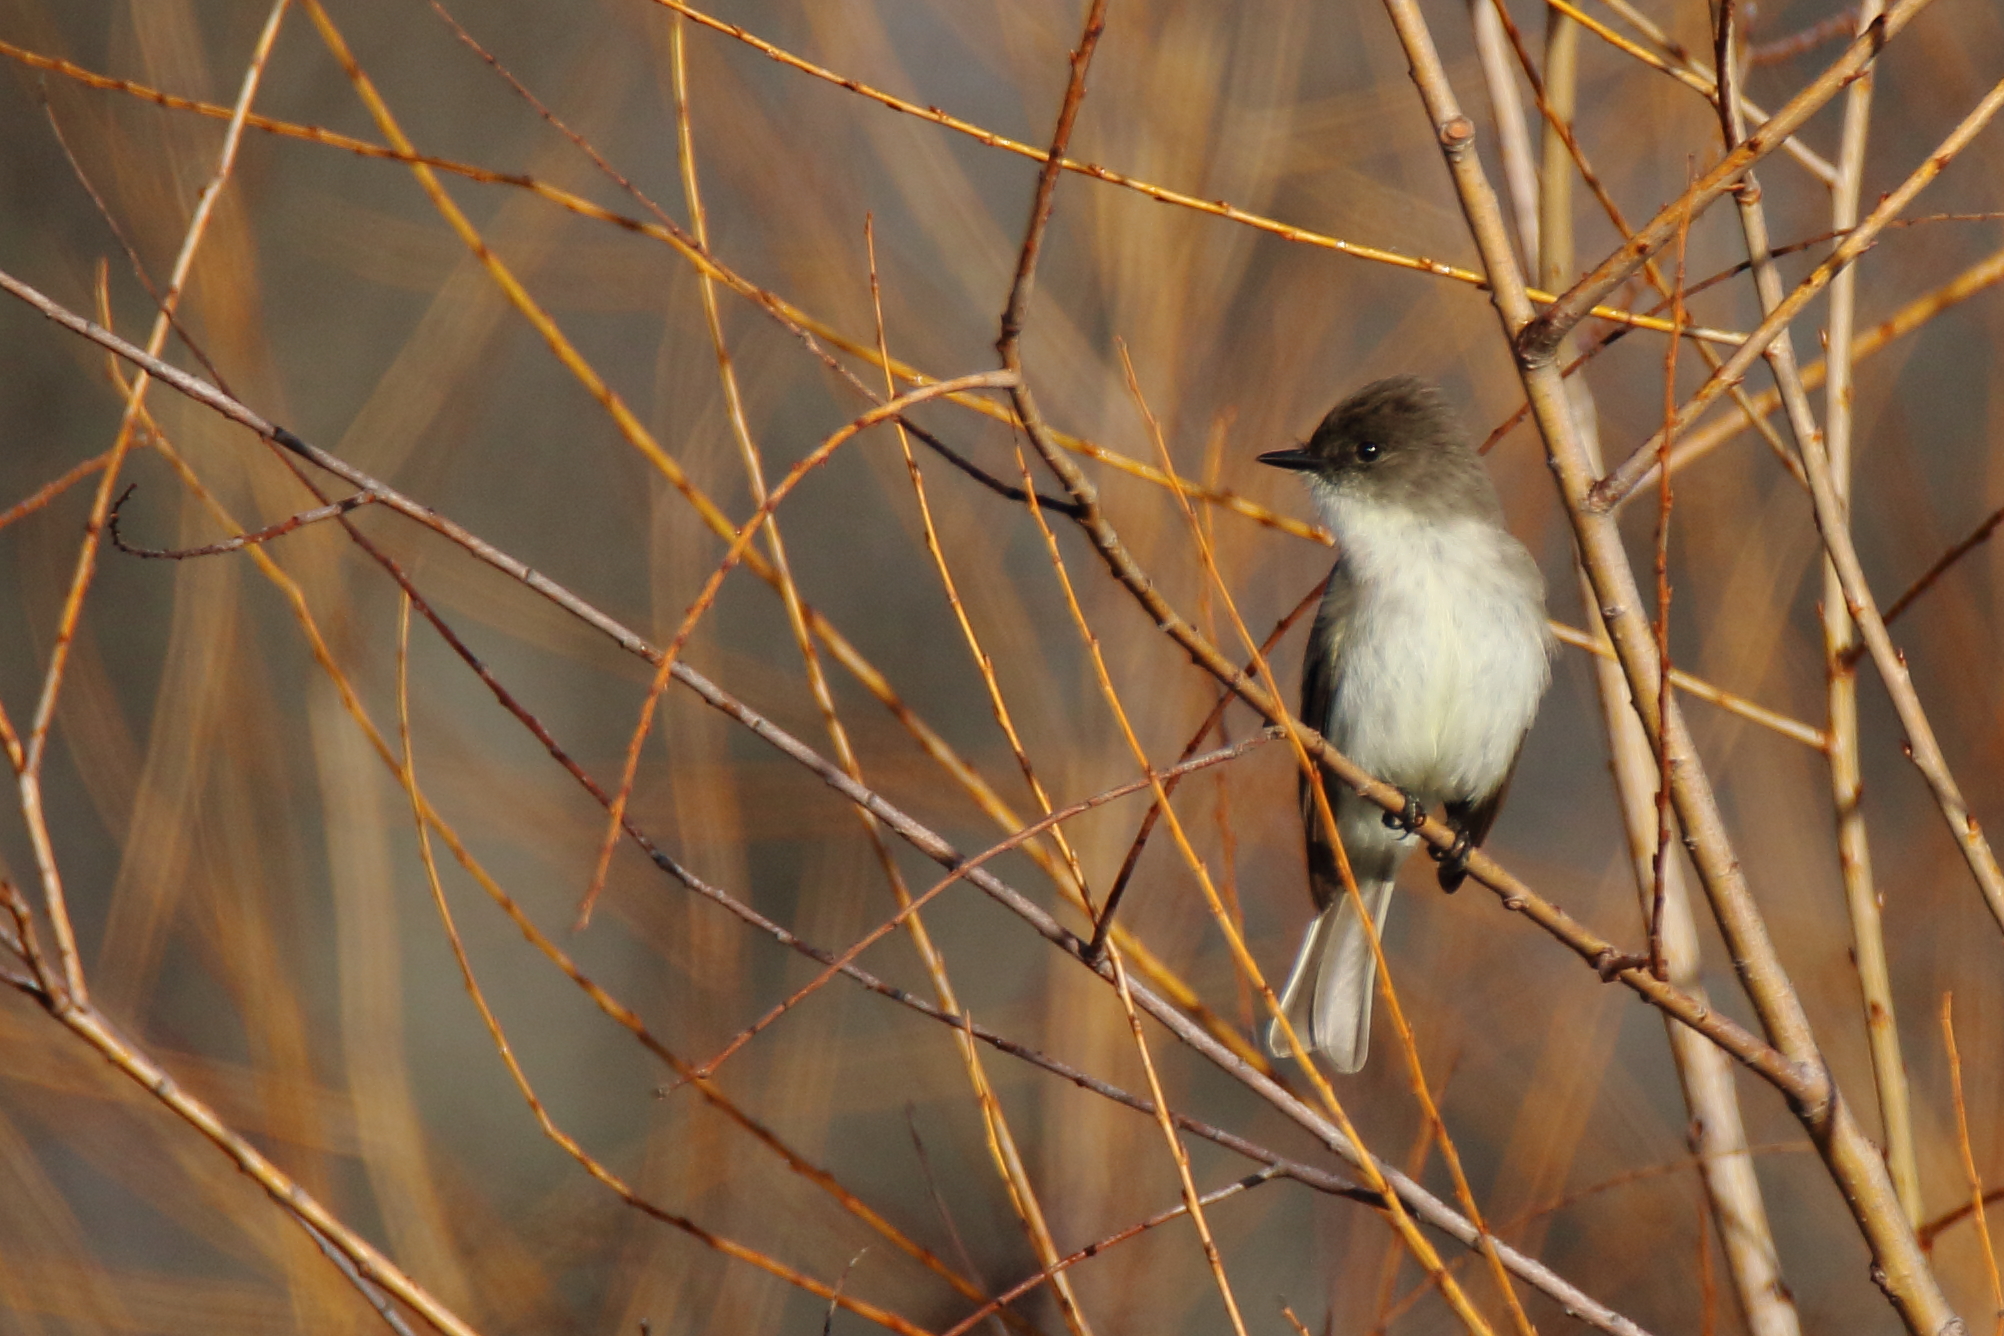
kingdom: Animalia
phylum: Chordata
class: Aves
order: Passeriformes
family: Tyrannidae
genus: Sayornis
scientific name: Sayornis phoebe
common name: Eastern phoebe
